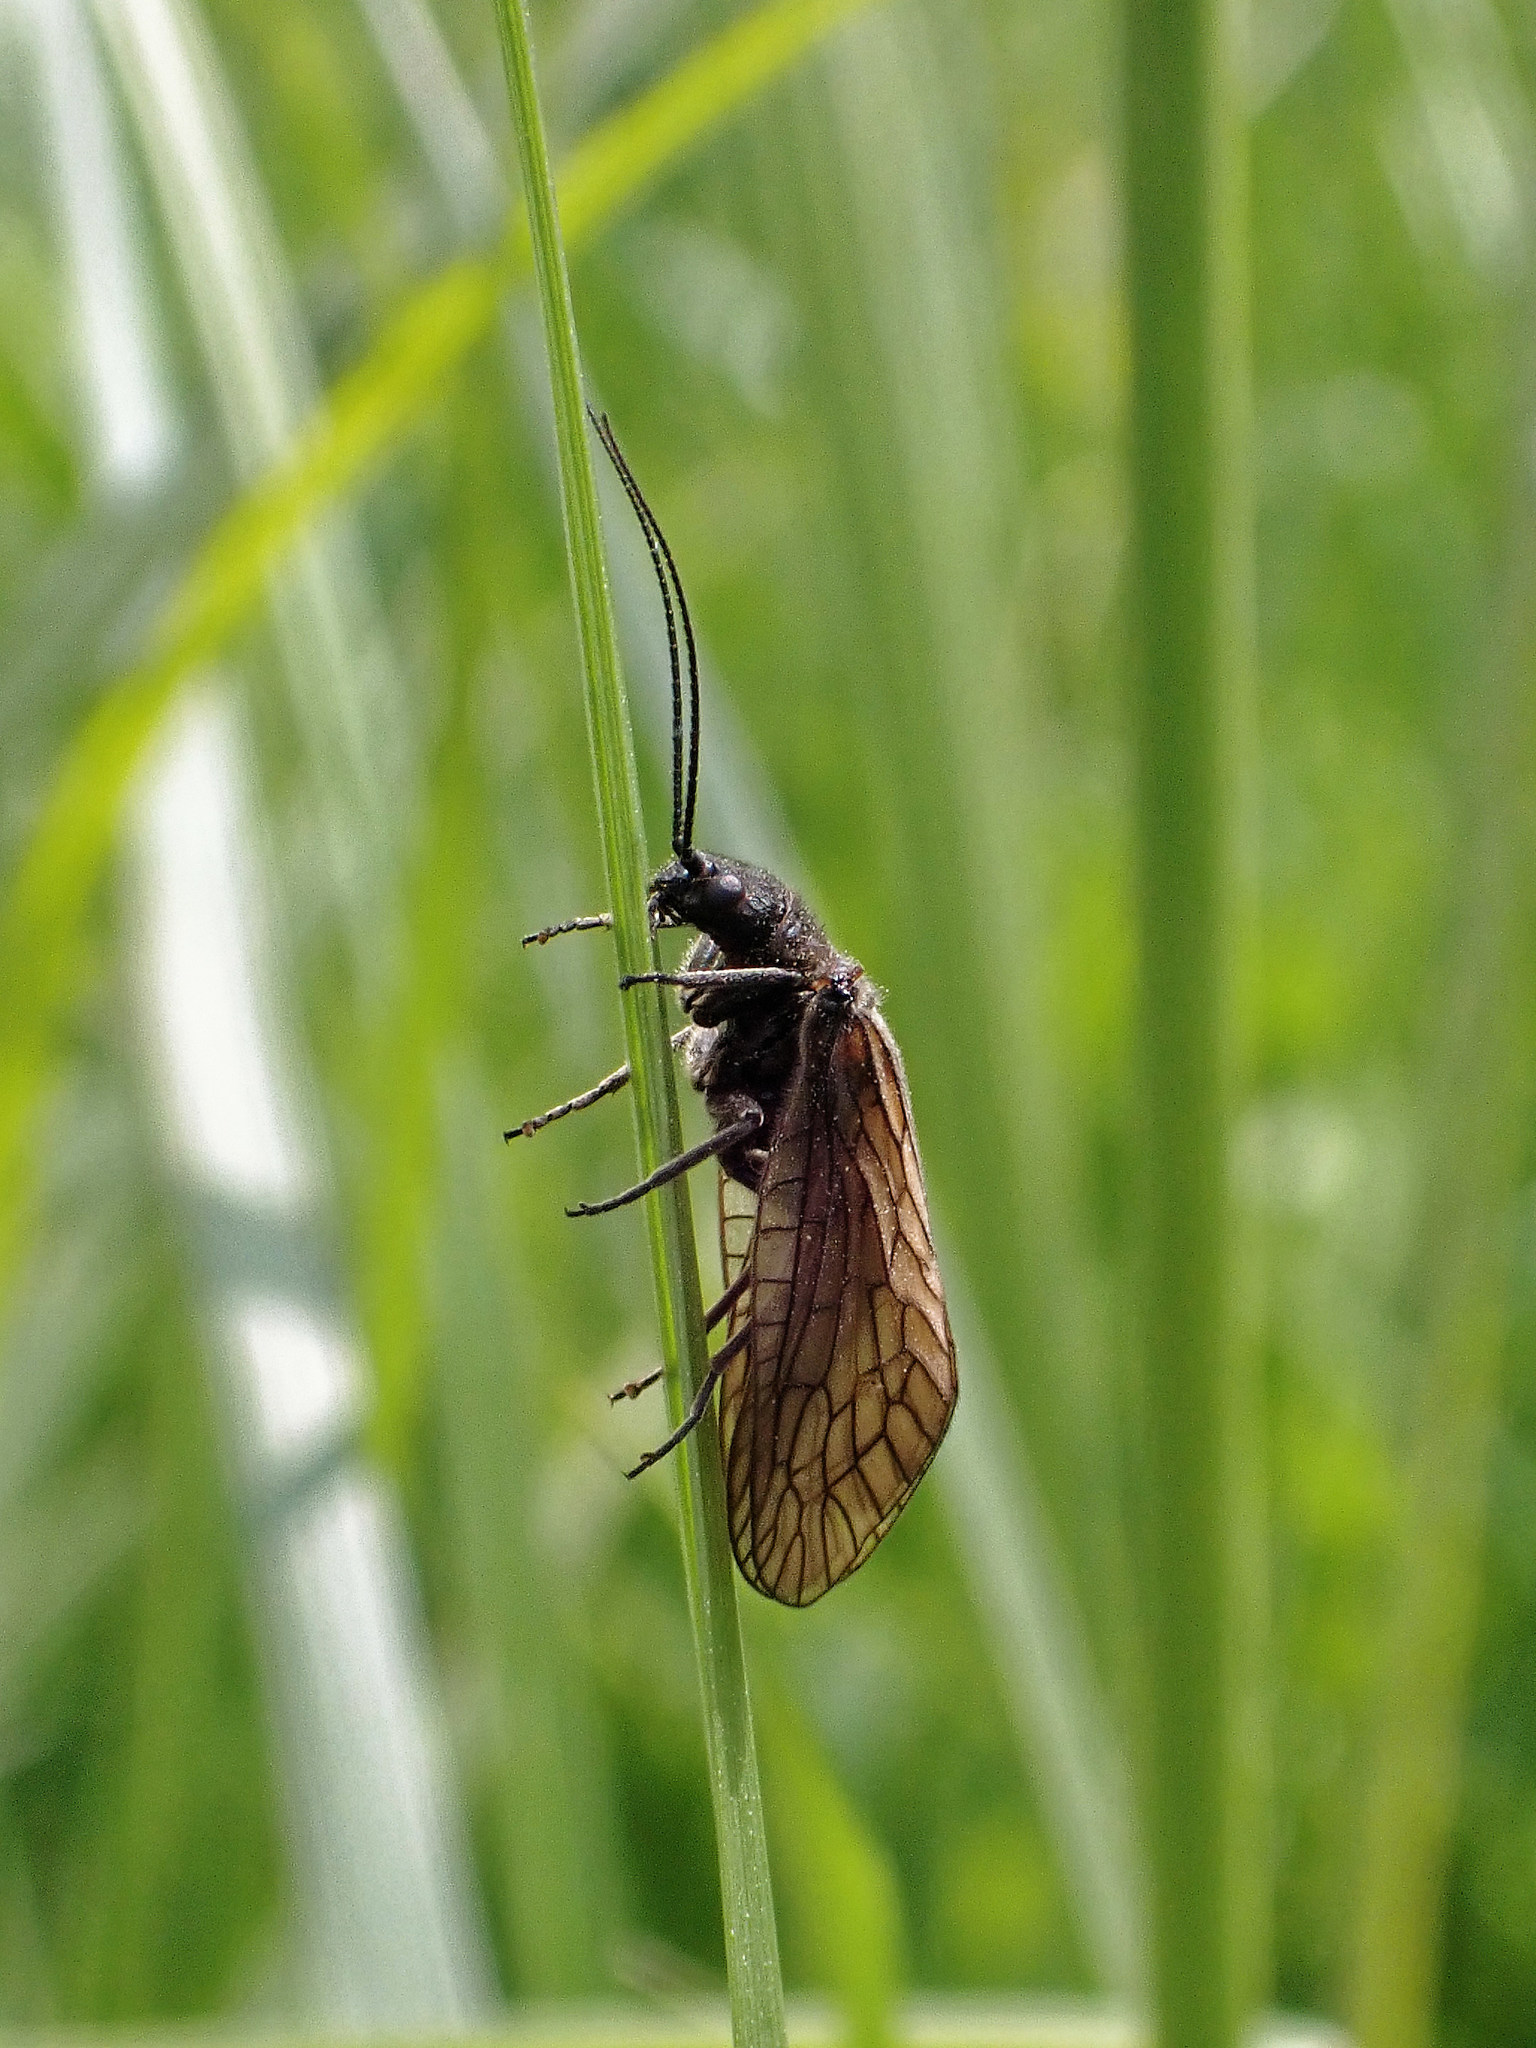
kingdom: Animalia
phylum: Arthropoda
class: Insecta
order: Megaloptera
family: Sialidae
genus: Sialis
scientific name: Sialis
